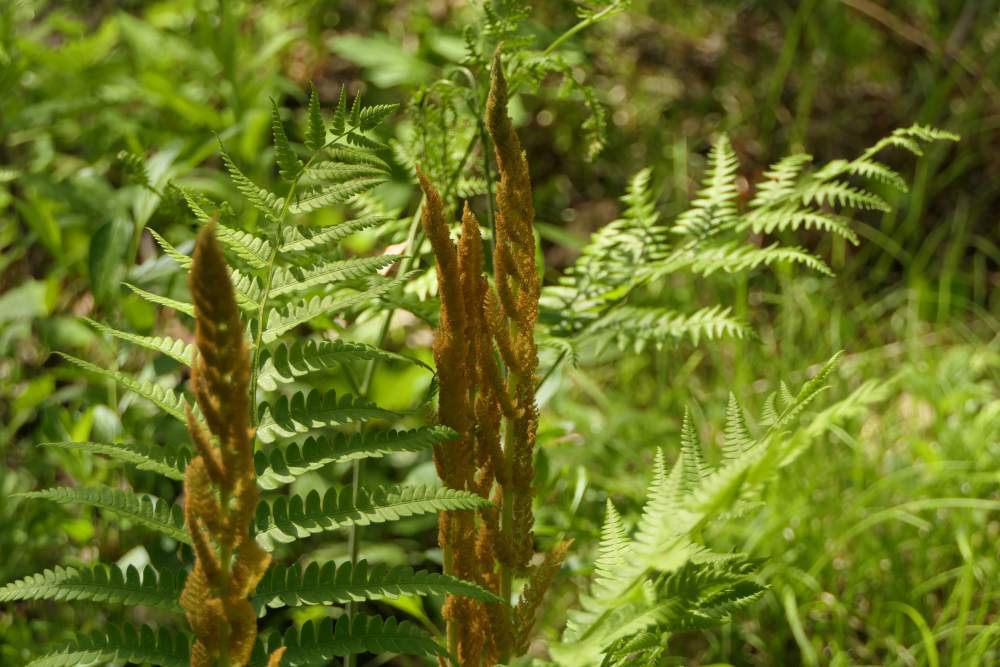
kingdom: Plantae
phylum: Tracheophyta
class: Polypodiopsida
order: Osmundales
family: Osmundaceae
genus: Osmundastrum
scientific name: Osmundastrum cinnamomeum
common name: Cinnamon fern
